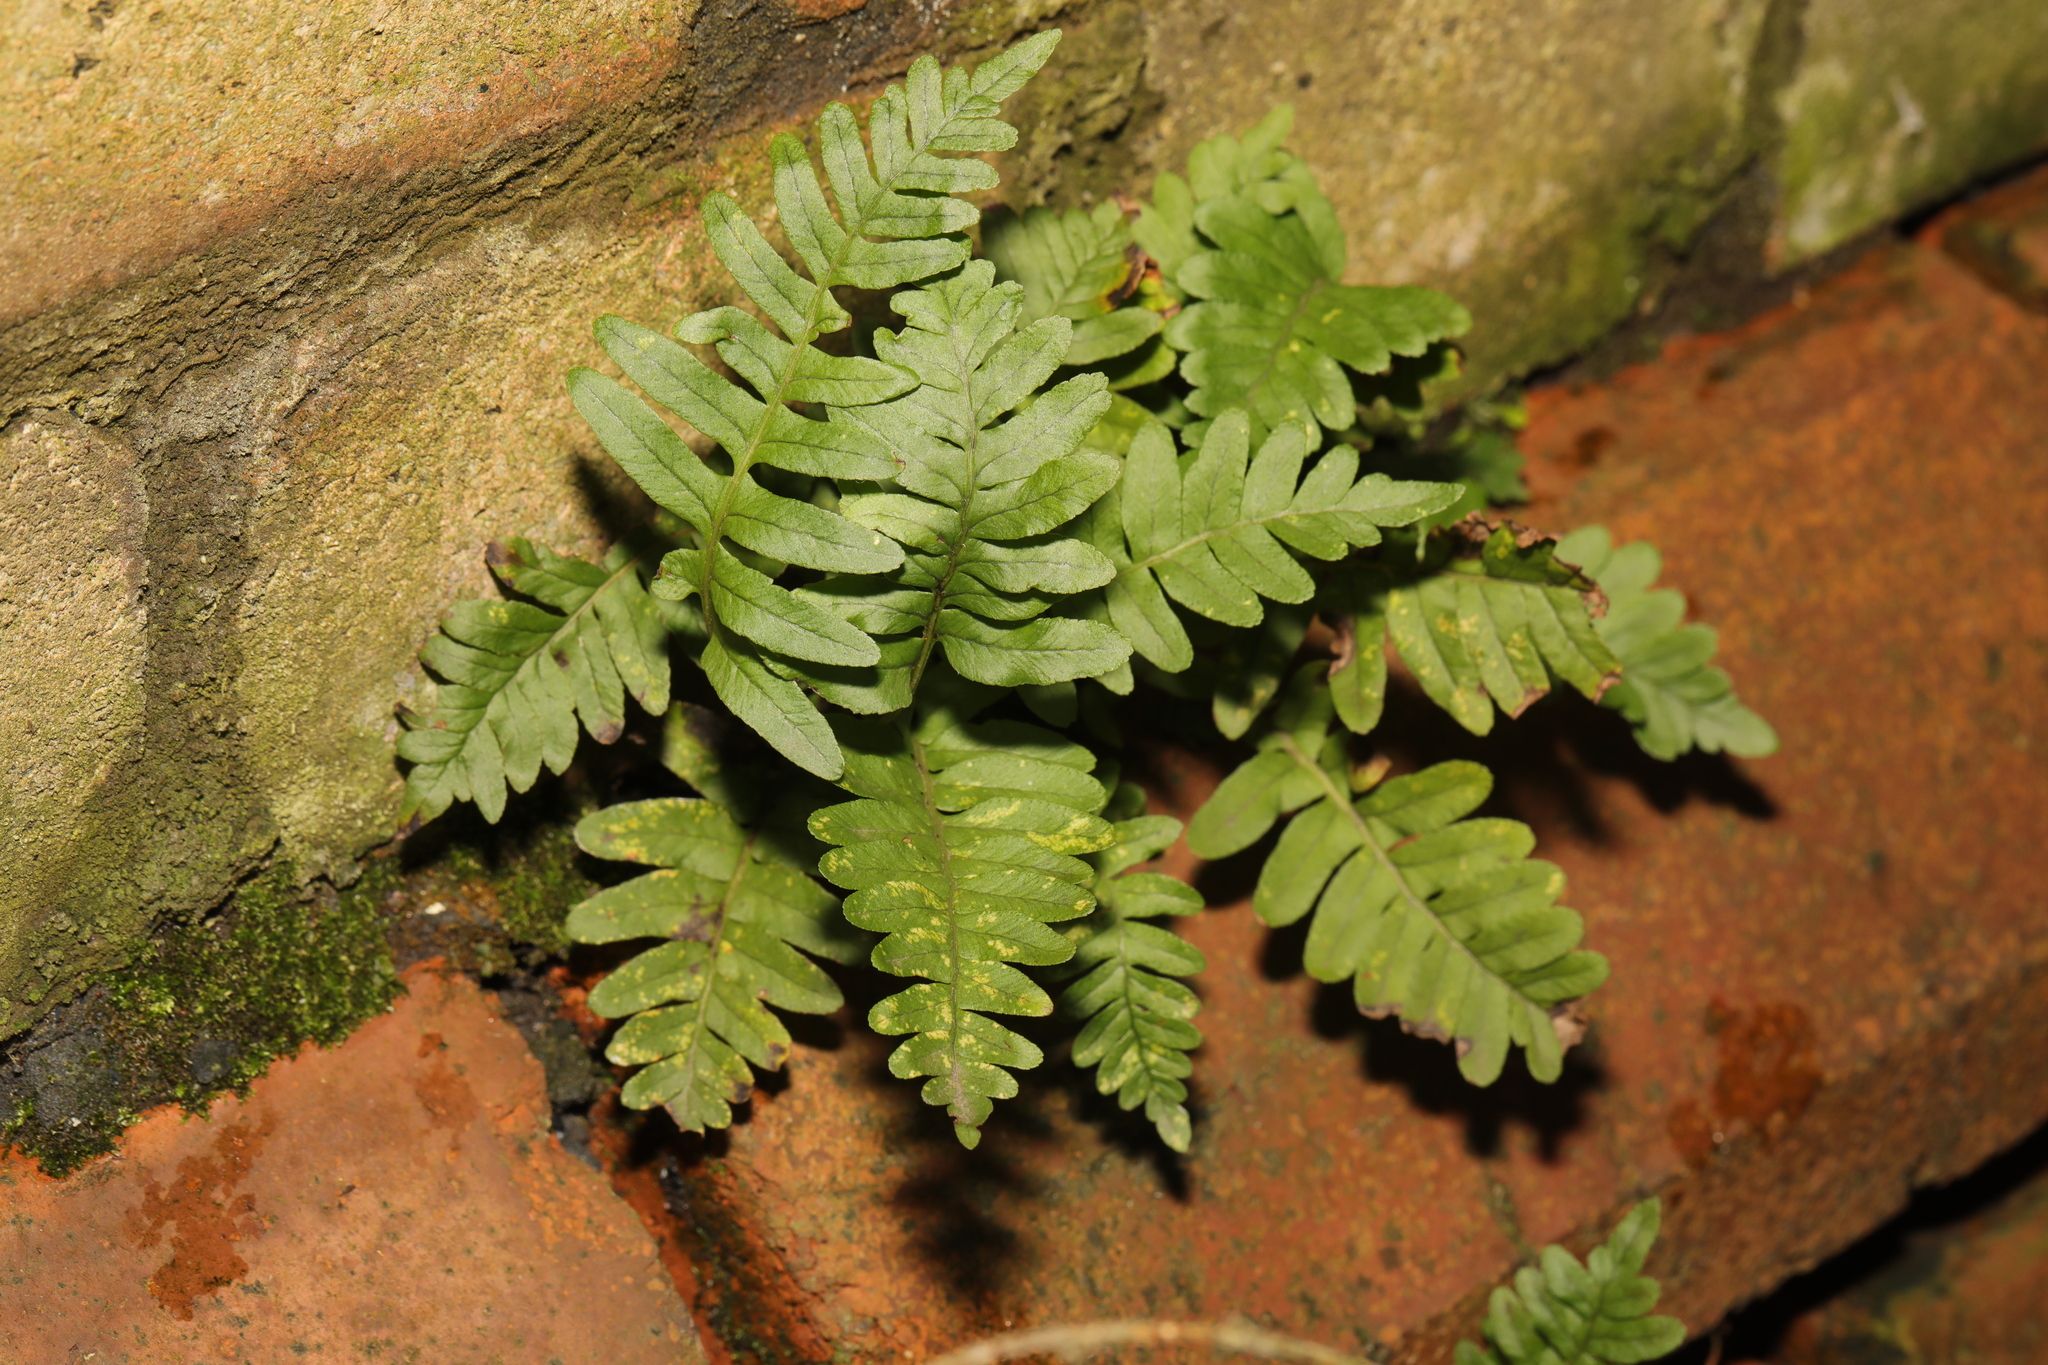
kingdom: Plantae
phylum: Tracheophyta
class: Polypodiopsida
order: Polypodiales
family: Polypodiaceae
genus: Polypodium
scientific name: Polypodium vulgare
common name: Common polypody
